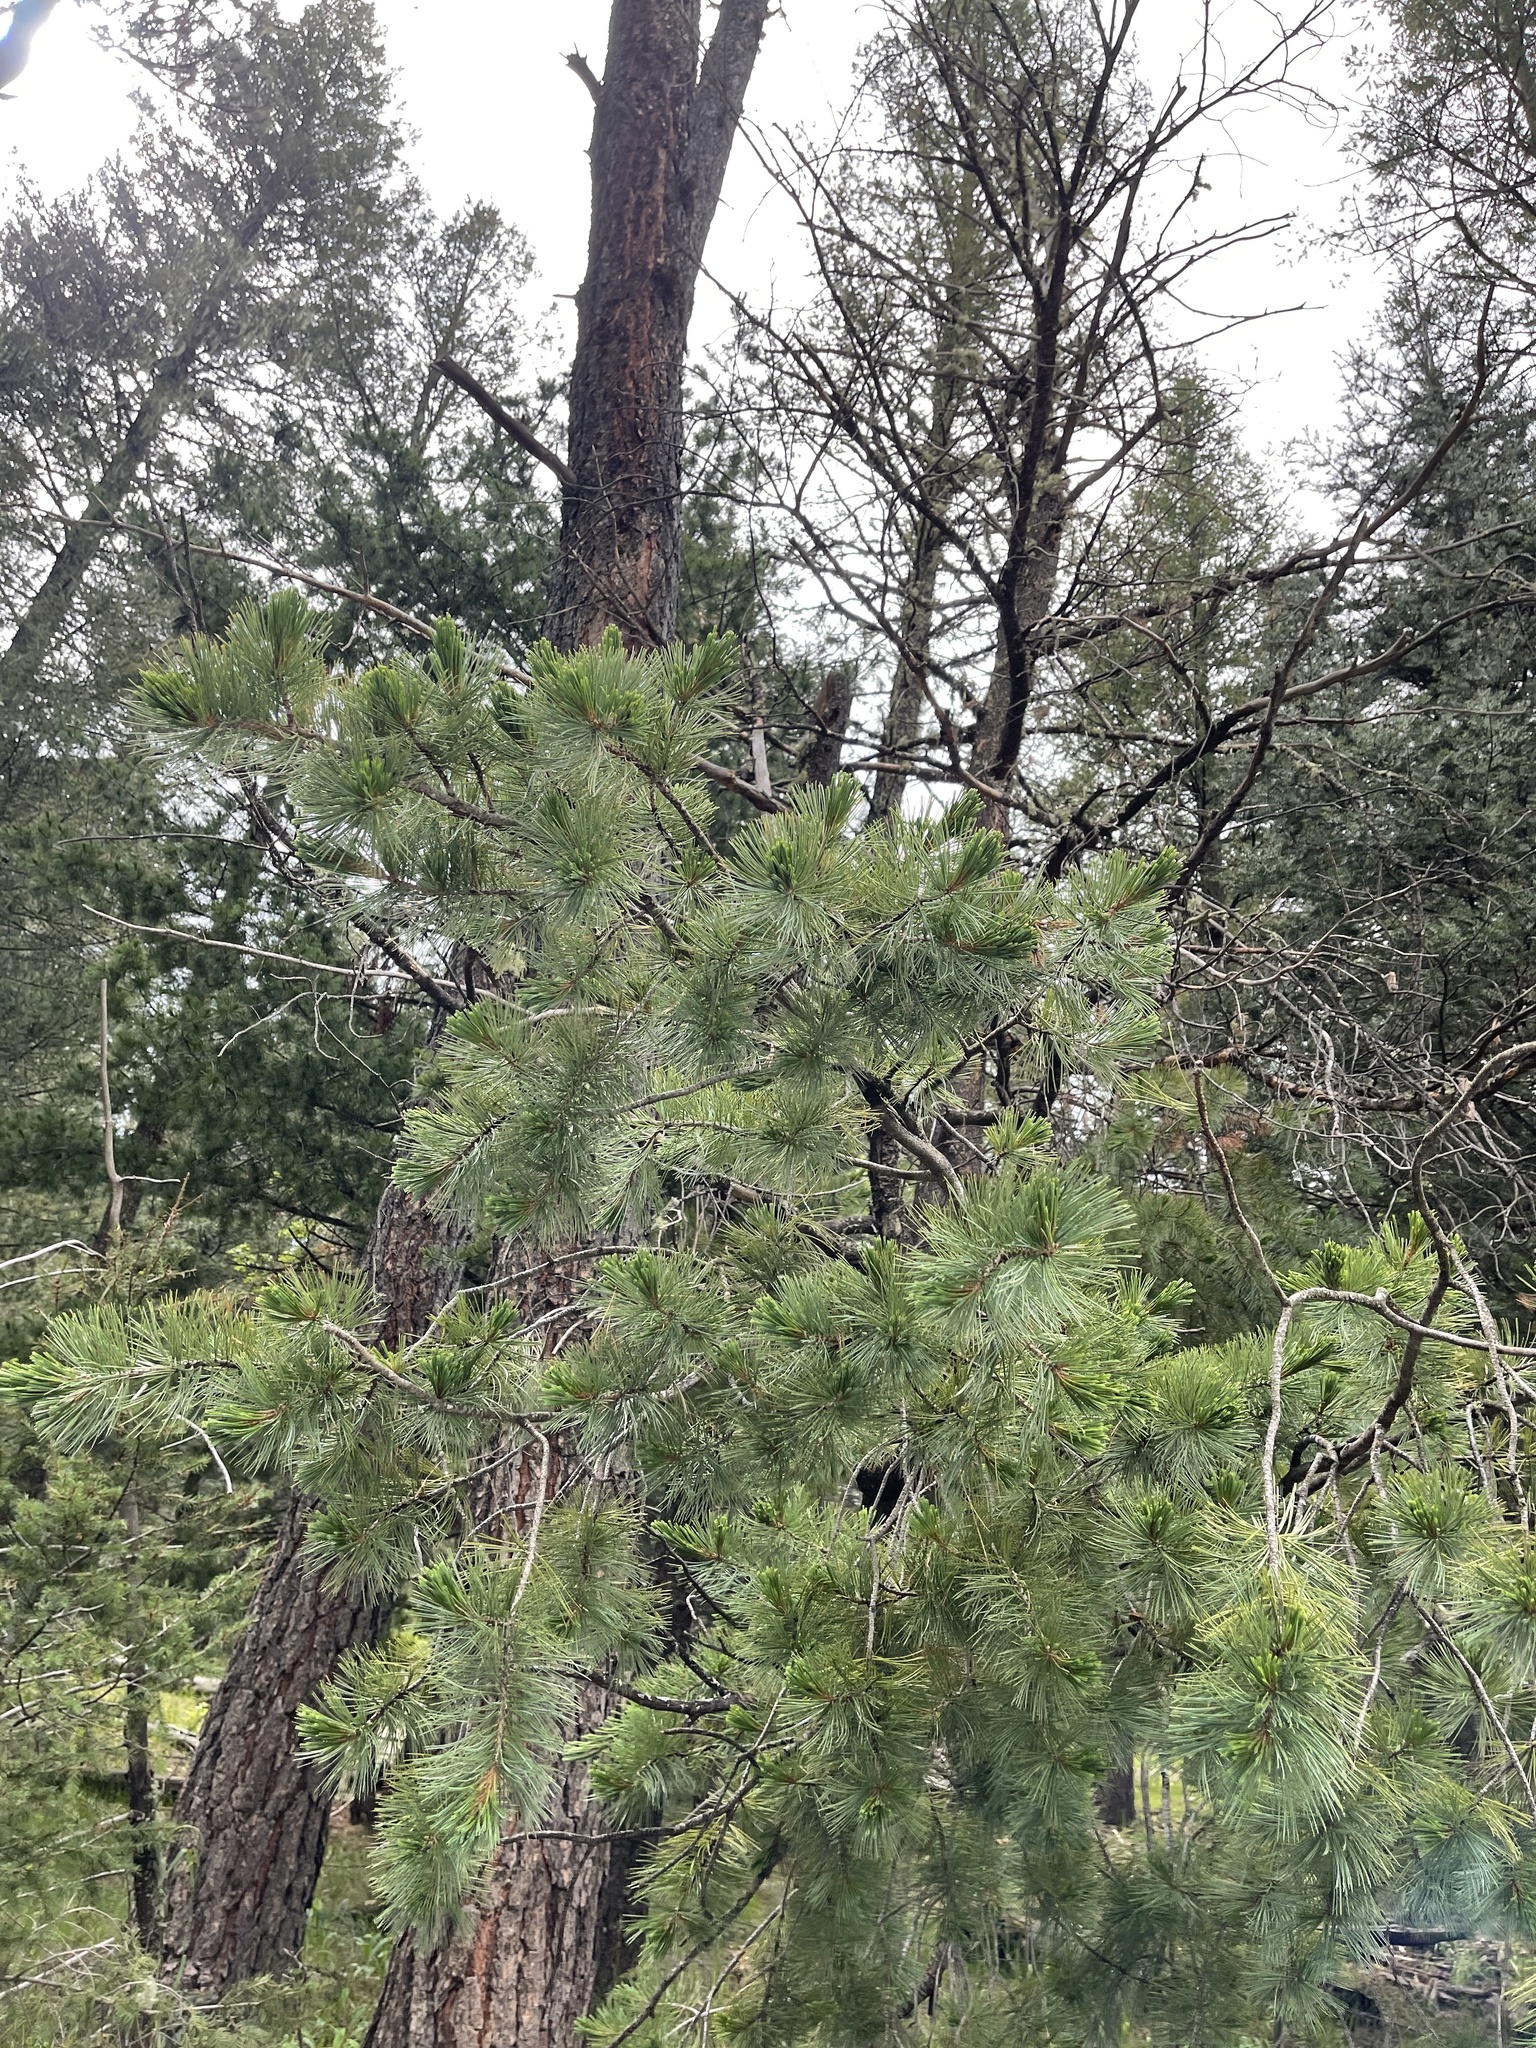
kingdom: Plantae
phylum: Tracheophyta
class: Pinopsida
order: Pinales
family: Pinaceae
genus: Pinus
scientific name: Pinus strobiformis
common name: Southwestern white pine
